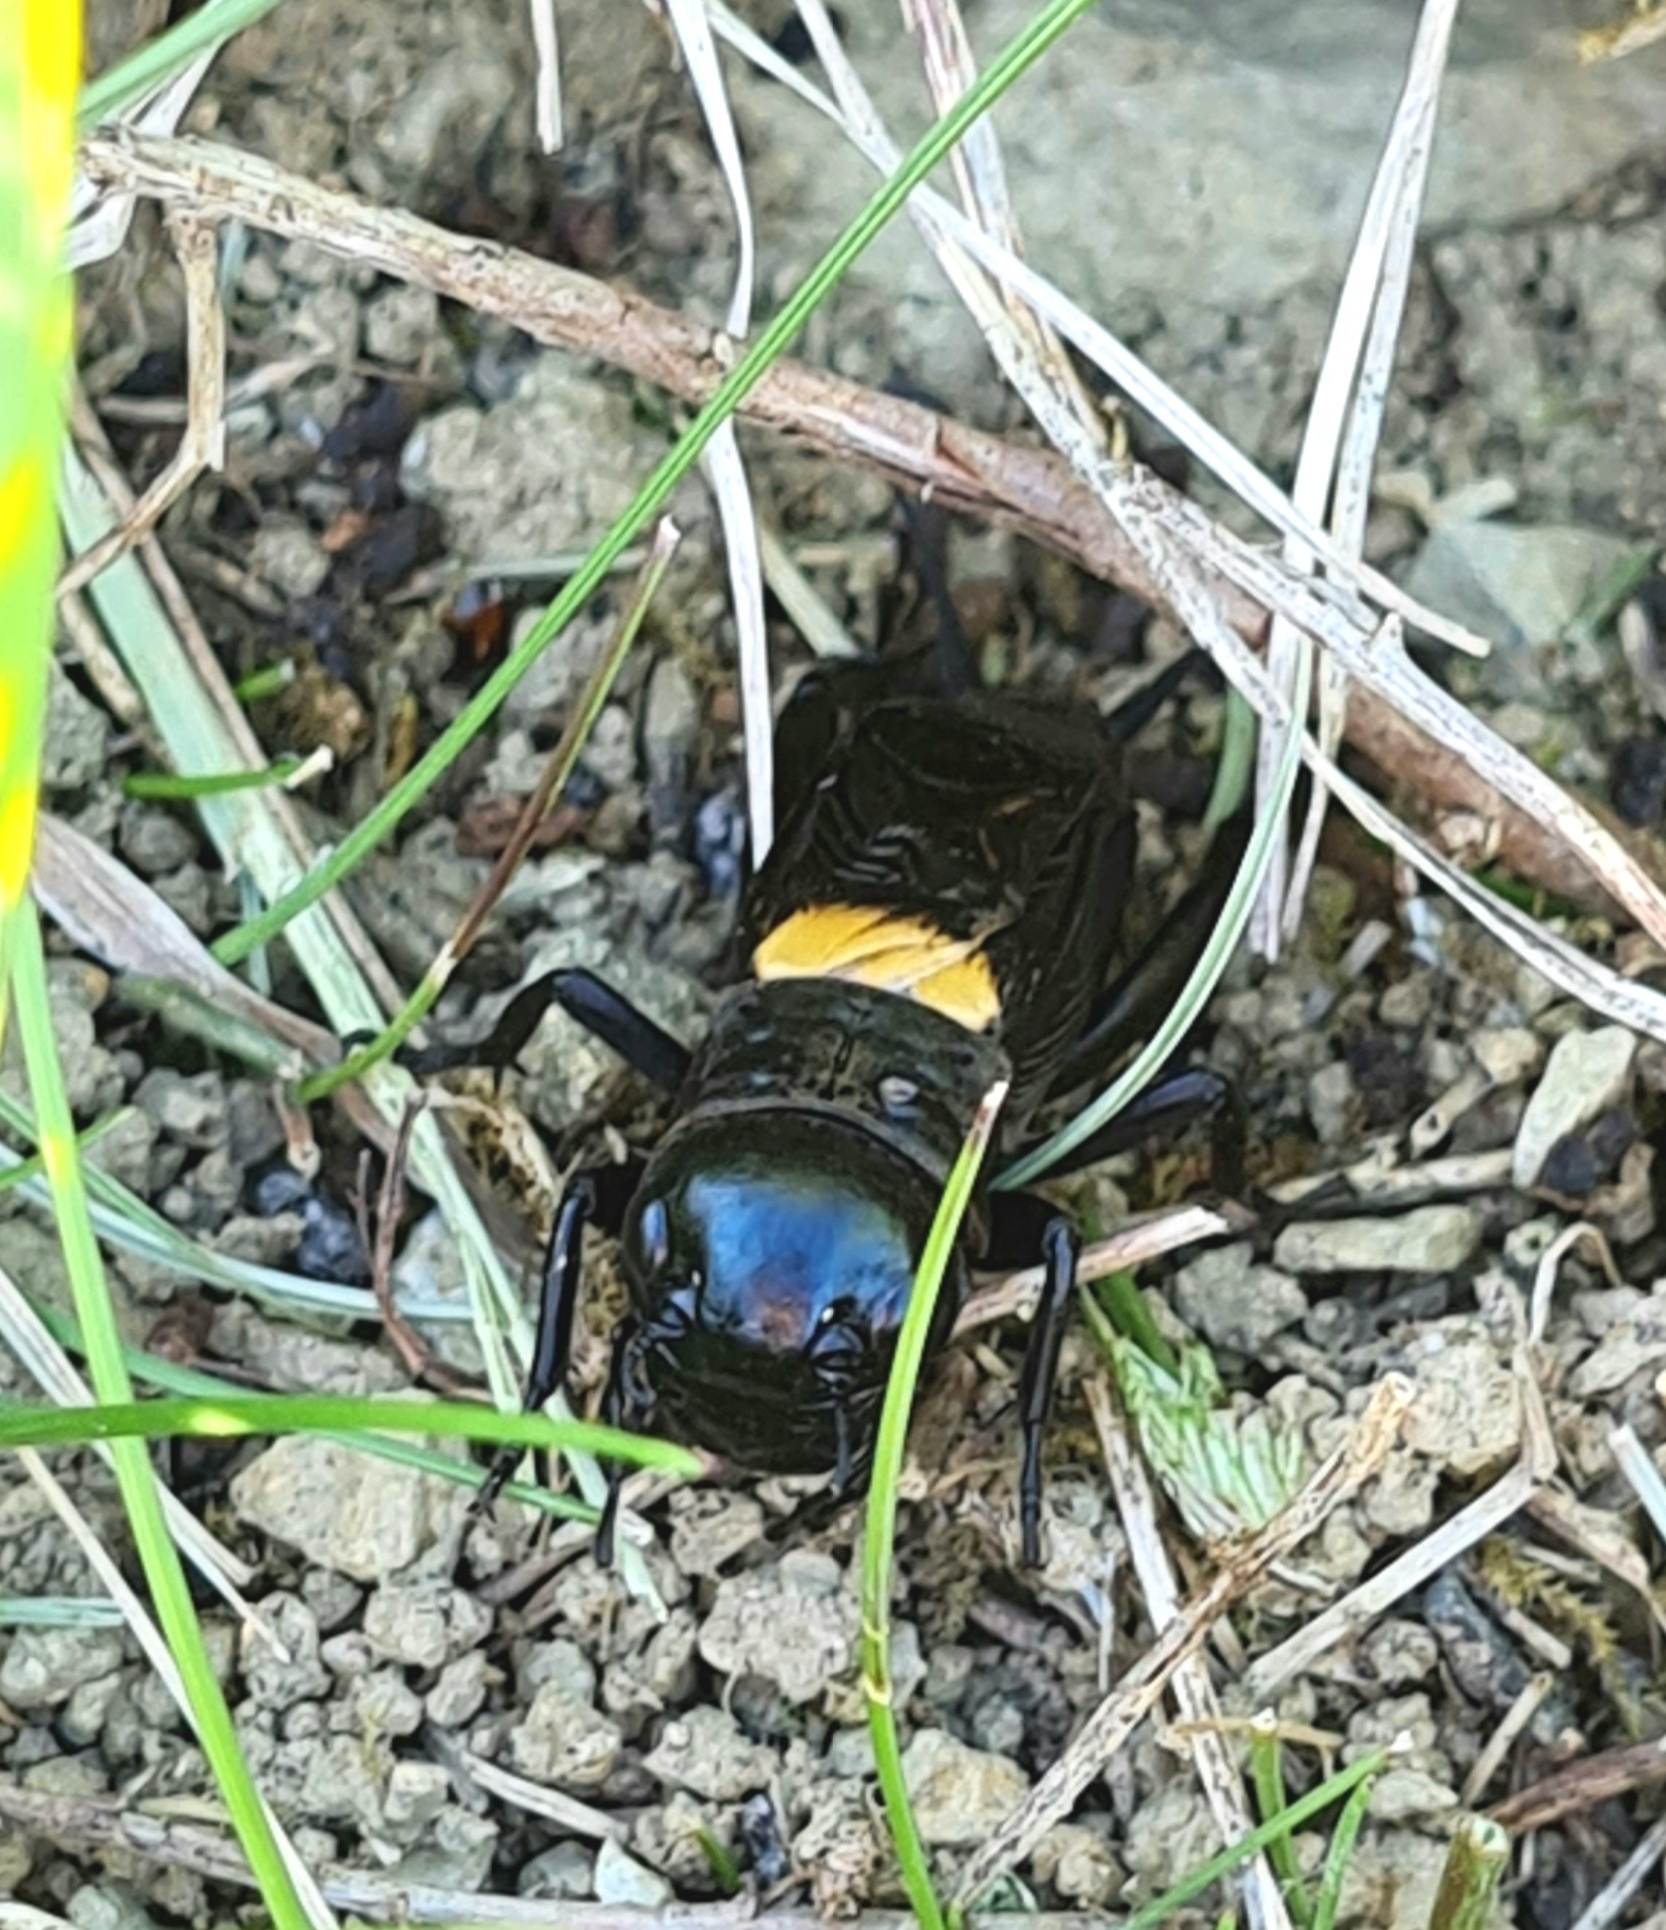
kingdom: Animalia
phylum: Arthropoda
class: Insecta
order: Orthoptera
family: Gryllidae
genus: Gryllus
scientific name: Gryllus campestris
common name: Field cricket
